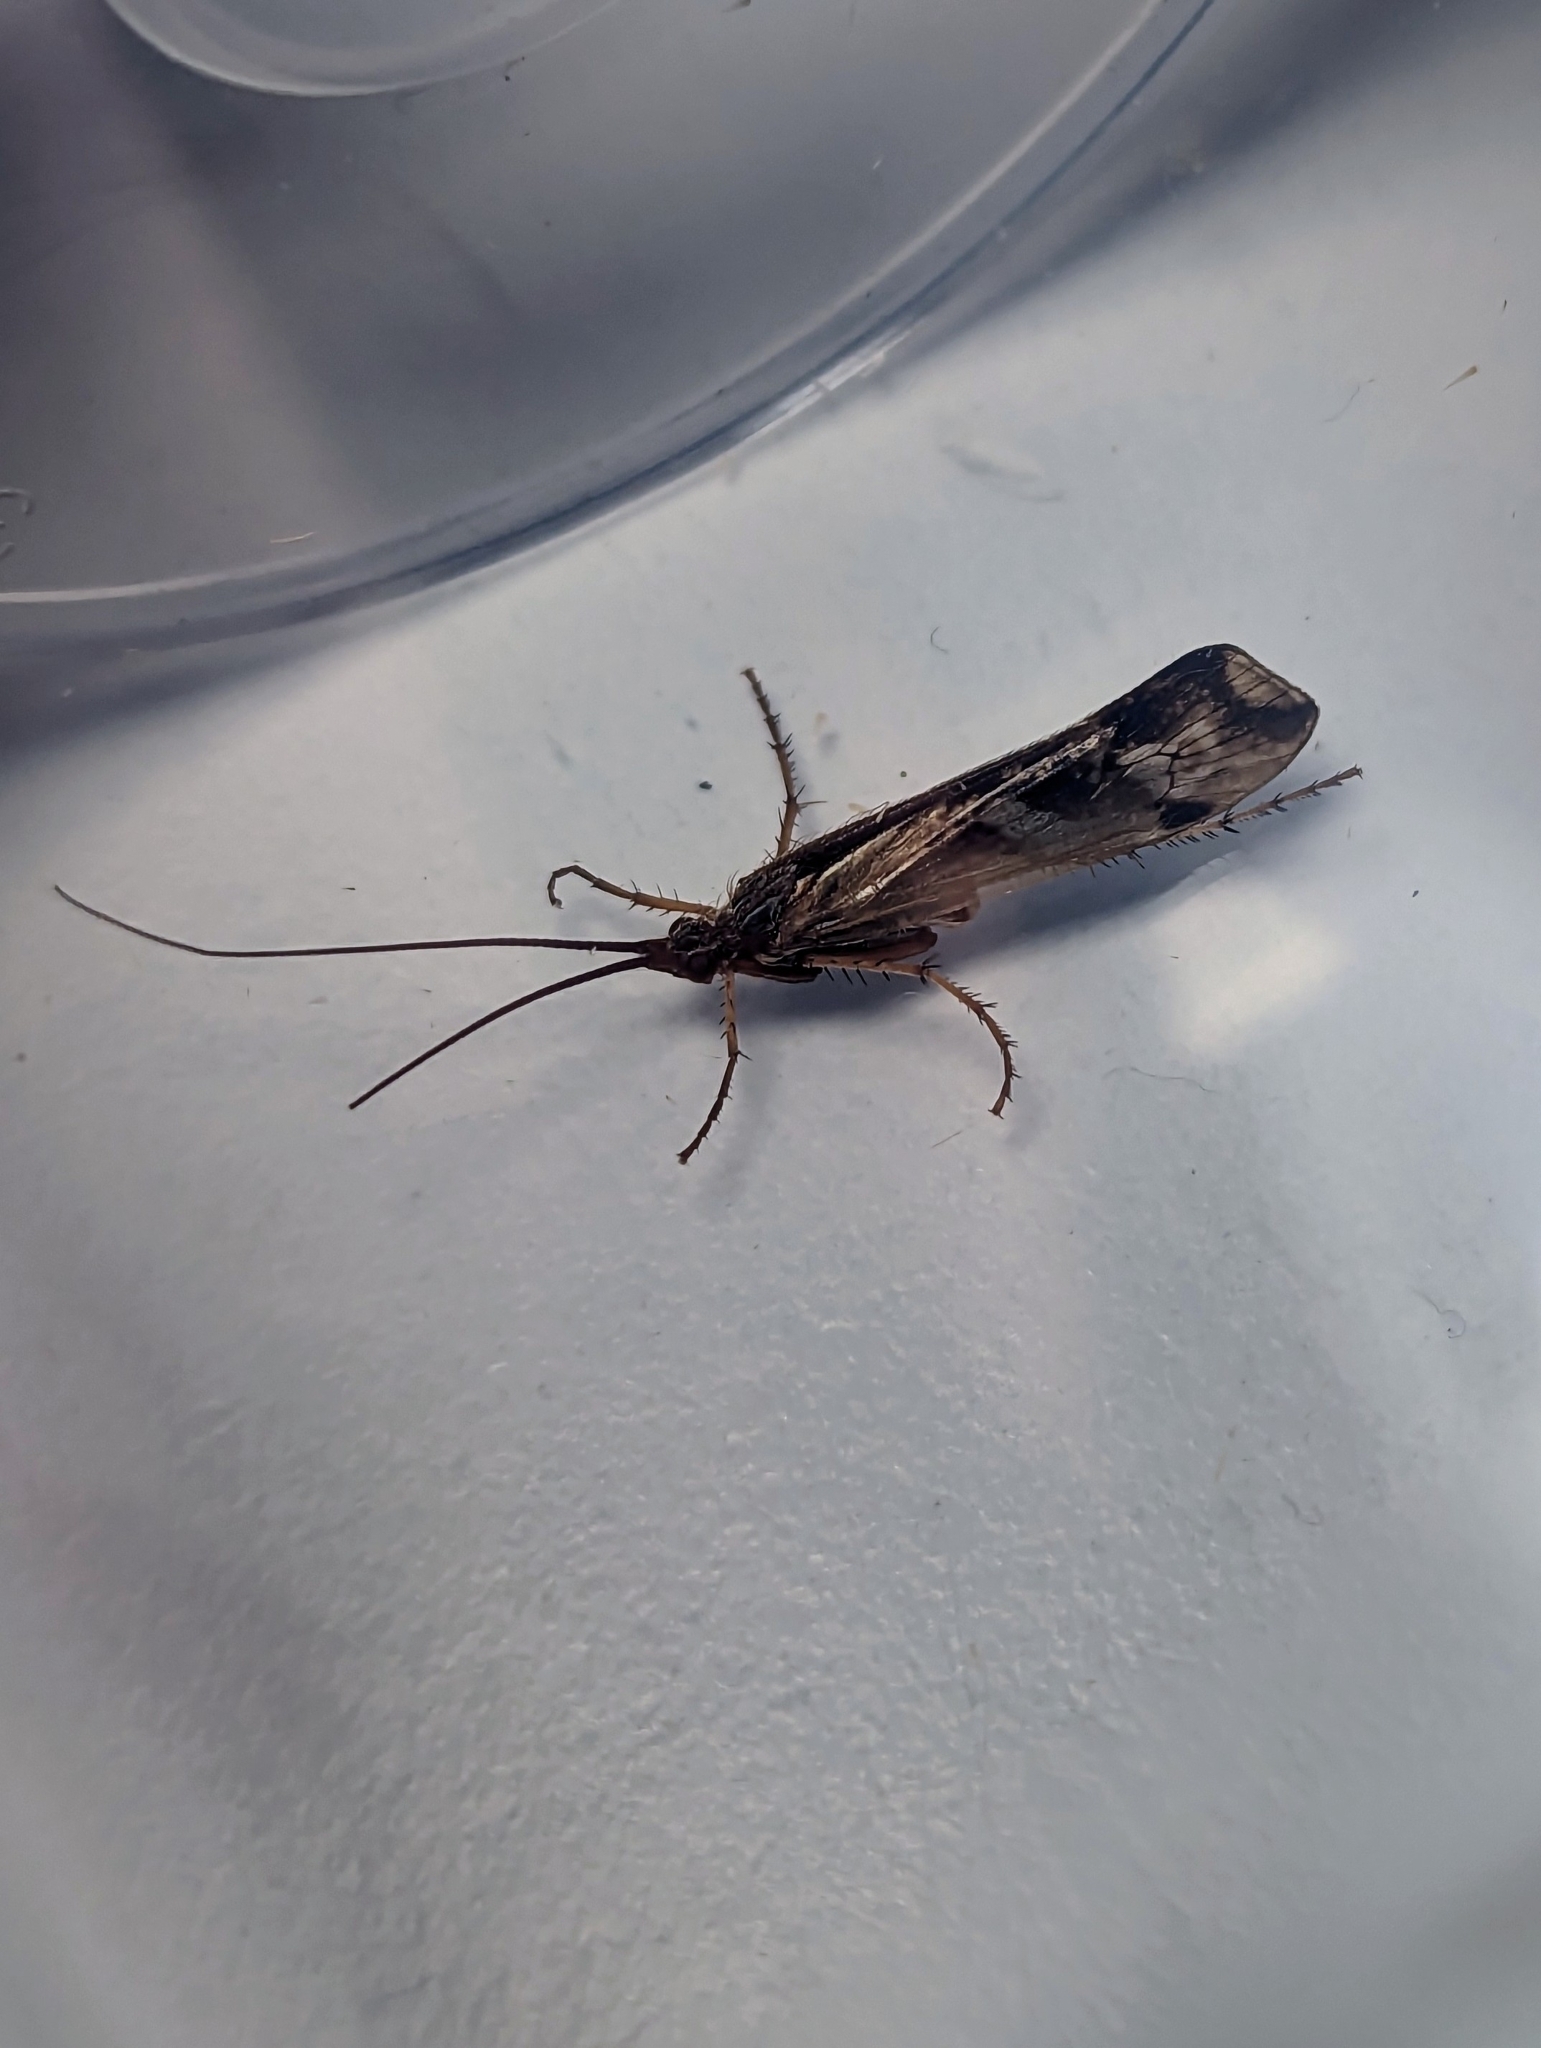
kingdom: Animalia
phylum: Arthropoda
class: Insecta
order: Trichoptera
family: Limnephilidae
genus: Limnephilus
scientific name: Limnephilus lunatus
